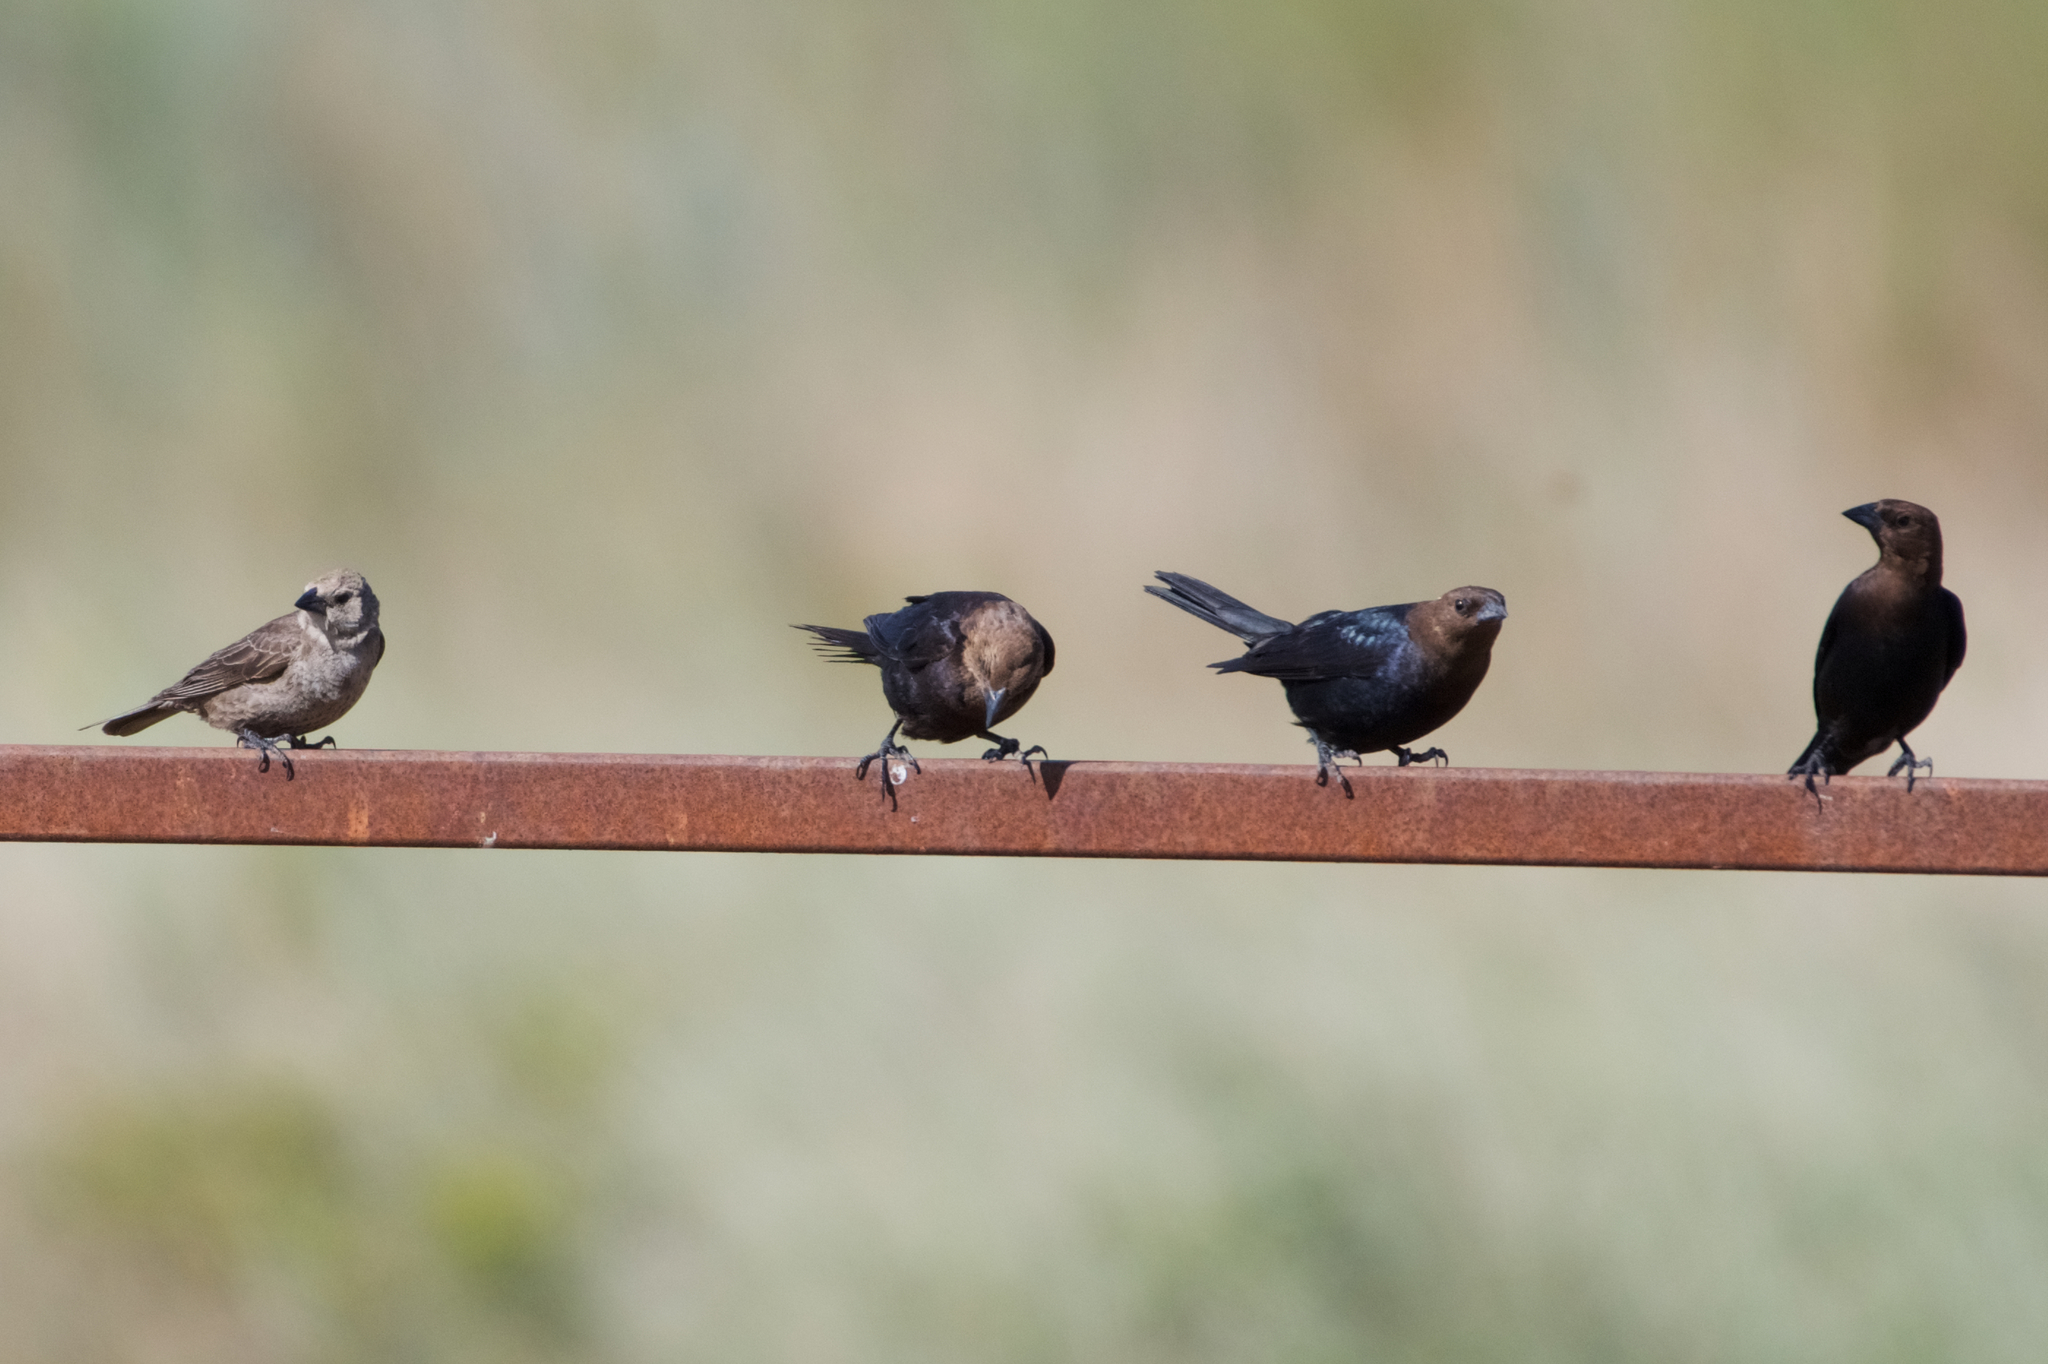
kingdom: Animalia
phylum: Chordata
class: Aves
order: Passeriformes
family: Icteridae
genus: Molothrus
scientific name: Molothrus ater
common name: Brown-headed cowbird
